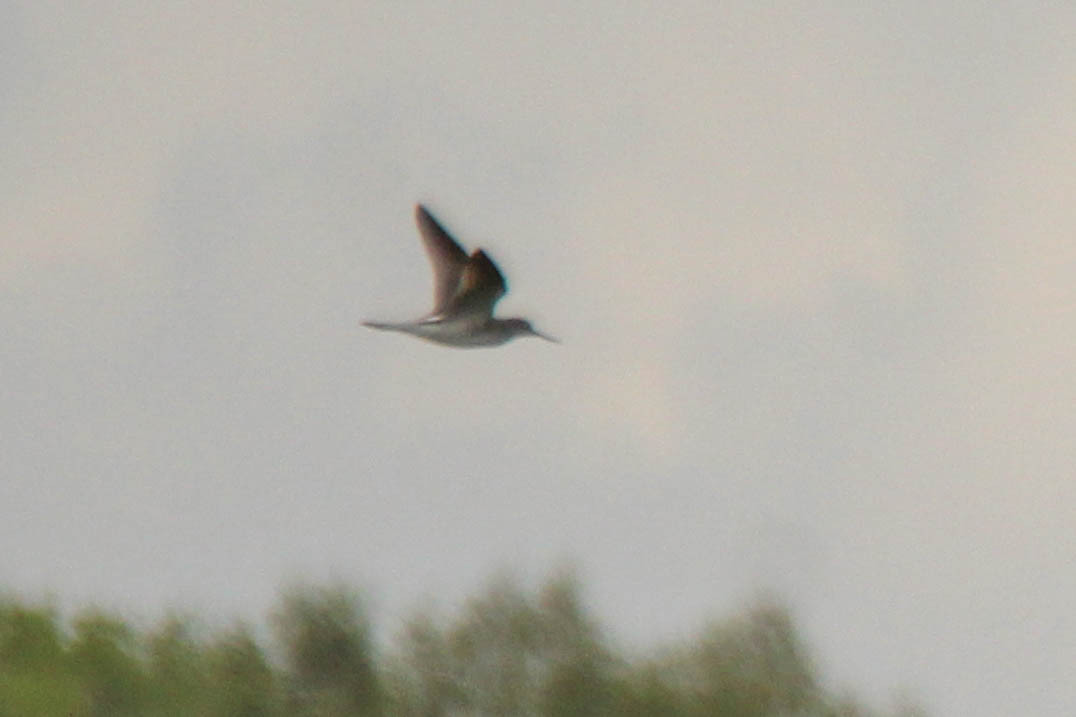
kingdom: Animalia
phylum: Chordata
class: Aves
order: Charadriiformes
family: Scolopacidae
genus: Tringa
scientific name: Tringa nebularia
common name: Common greenshank
